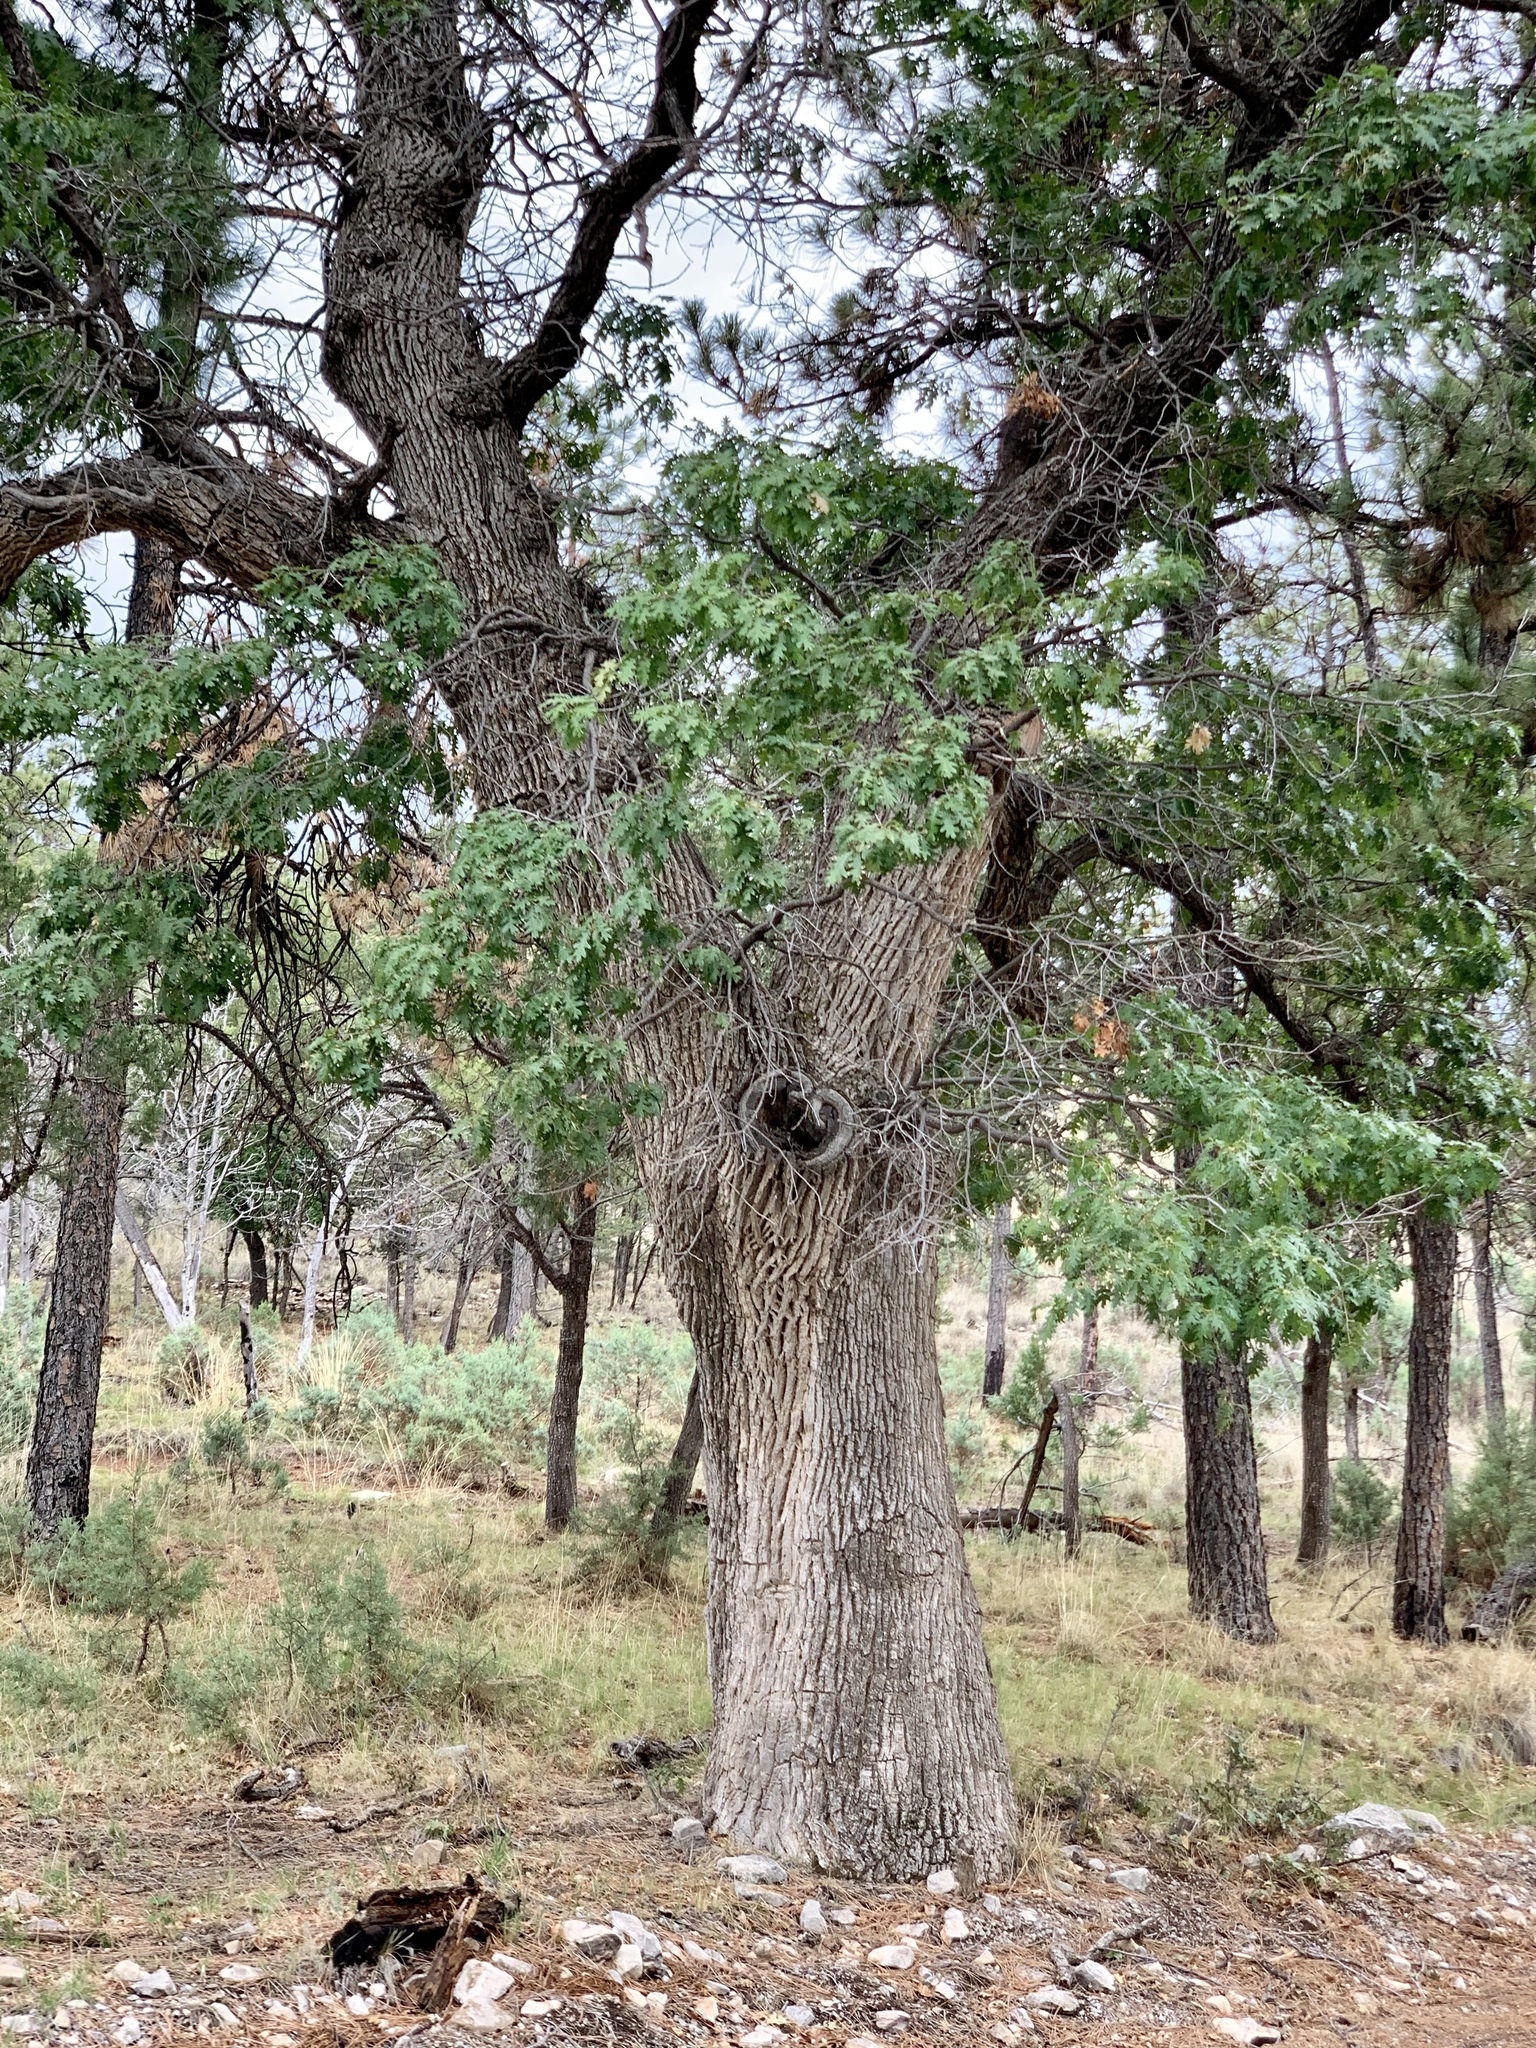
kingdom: Plantae
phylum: Tracheophyta
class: Magnoliopsida
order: Fagales
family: Fagaceae
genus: Quercus
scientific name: Quercus gambelii
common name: Gambel oak
